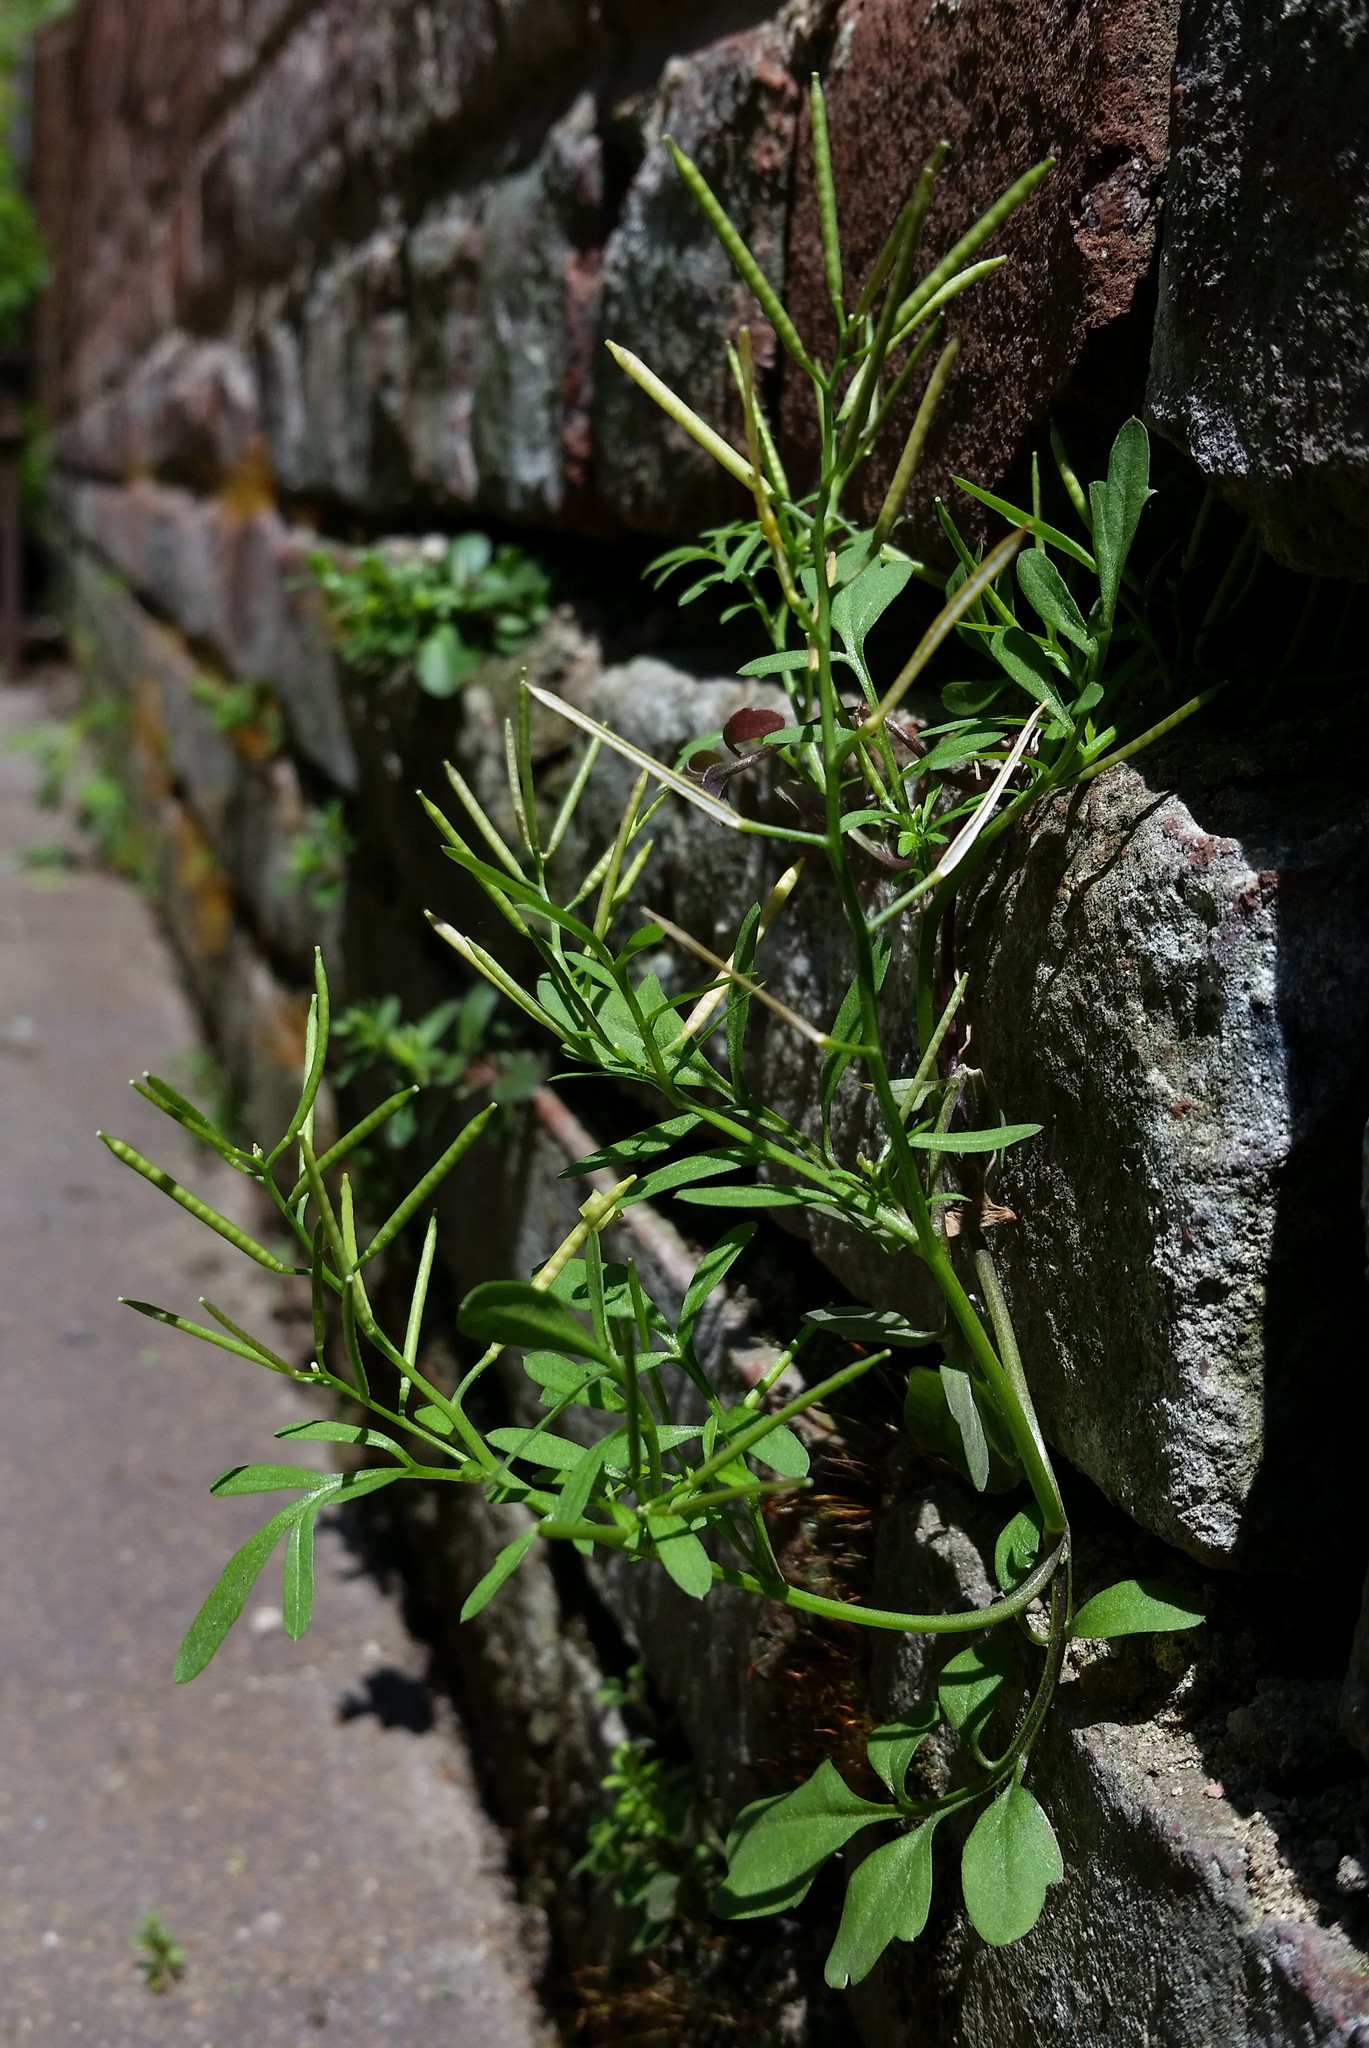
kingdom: Plantae
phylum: Tracheophyta
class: Magnoliopsida
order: Brassicales
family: Brassicaceae
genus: Cardamine
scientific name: Cardamine occulta
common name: Asian wavy bittercress
